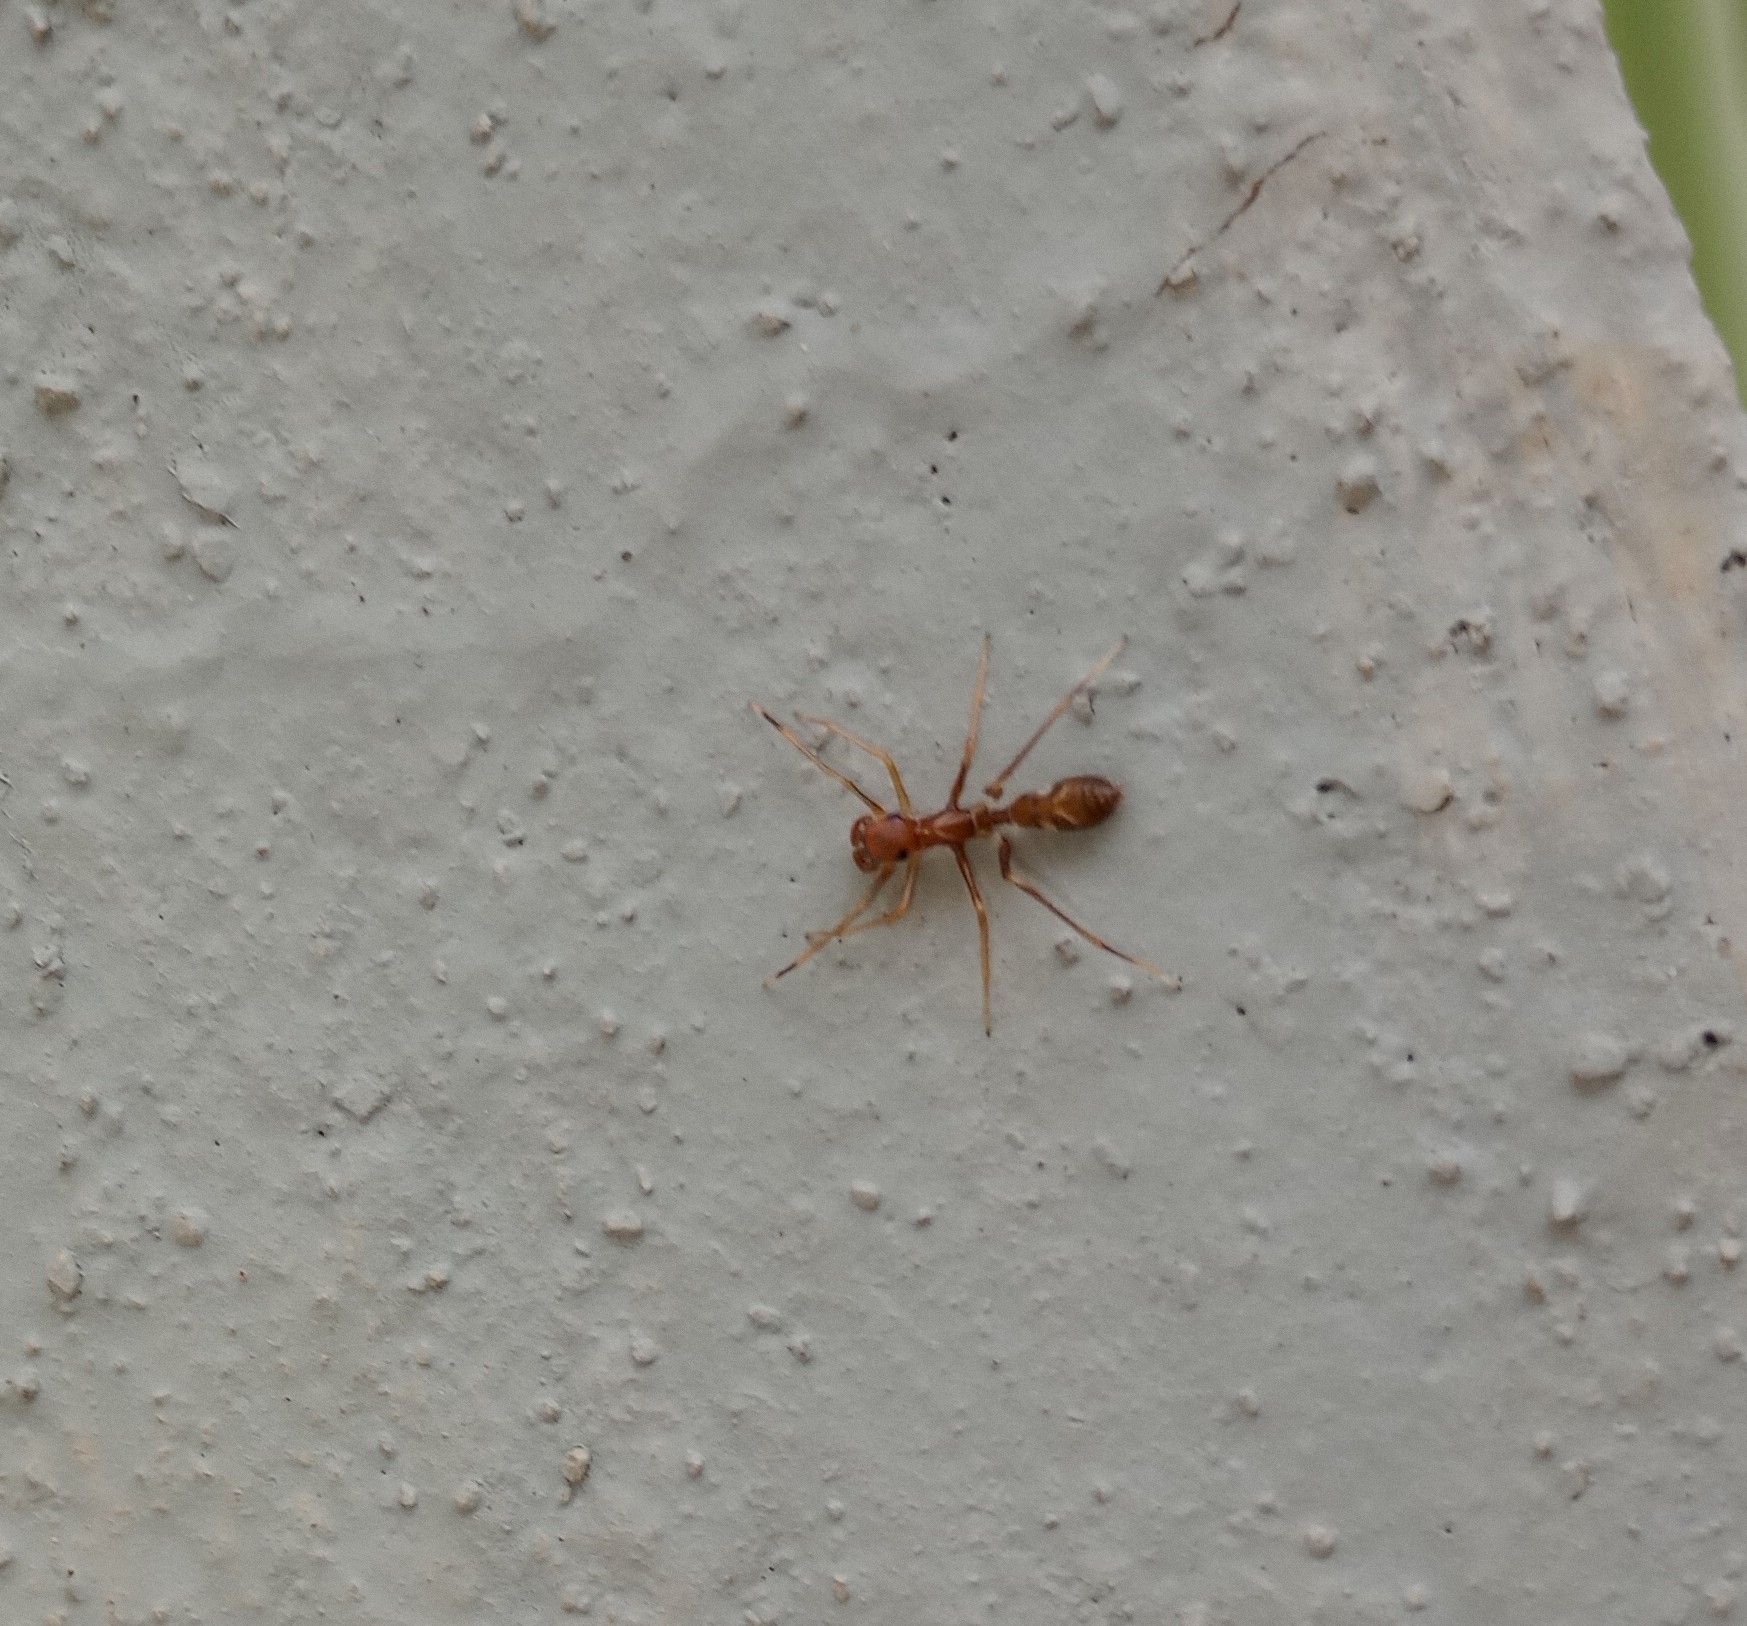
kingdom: Animalia
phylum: Arthropoda
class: Arachnida
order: Araneae
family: Salticidae
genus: Myrmaplata
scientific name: Myrmaplata plataleoides
